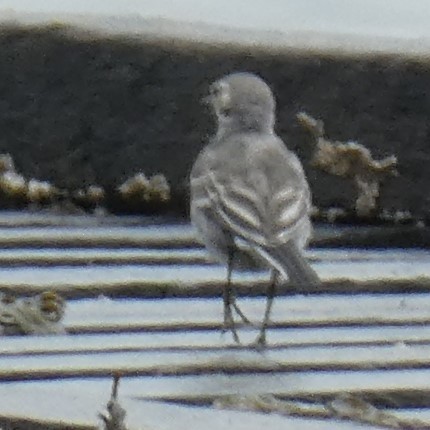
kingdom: Animalia
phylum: Chordata
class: Aves
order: Passeriformes
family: Motacillidae
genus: Motacilla
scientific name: Motacilla alba
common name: White wagtail
